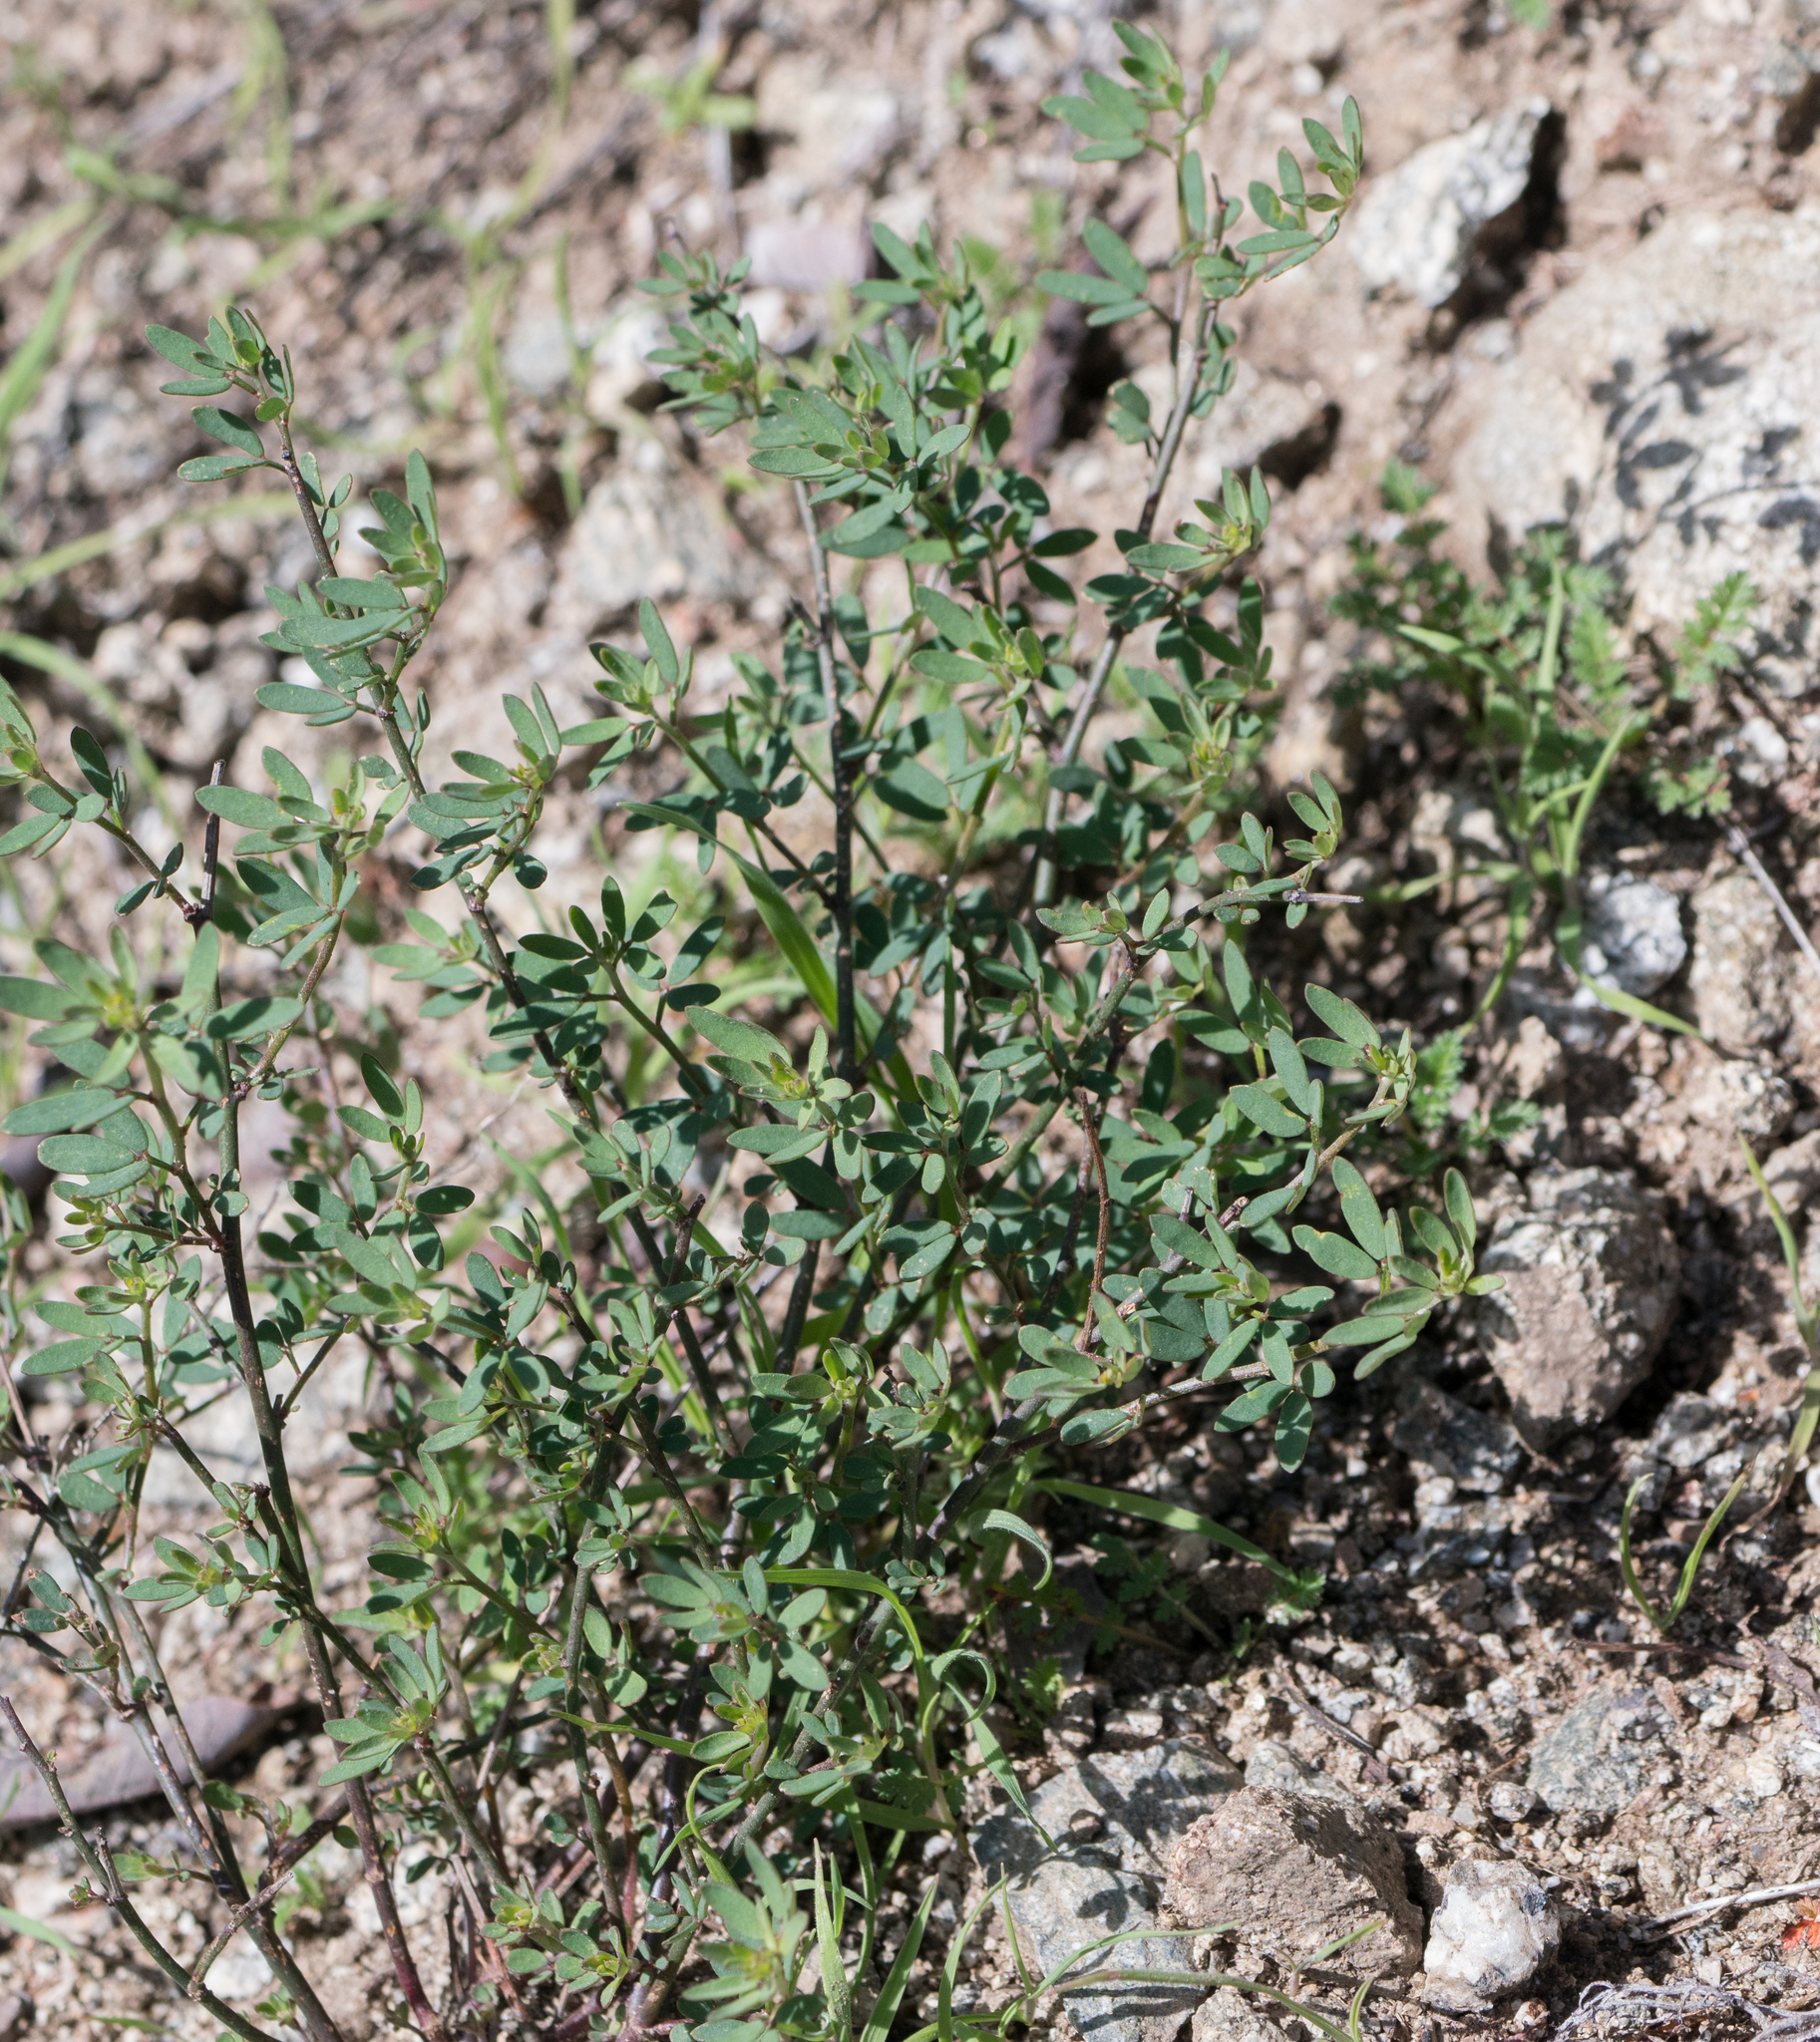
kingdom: Plantae
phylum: Tracheophyta
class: Magnoliopsida
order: Fabales
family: Fabaceae
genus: Acmispon
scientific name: Acmispon glaber
